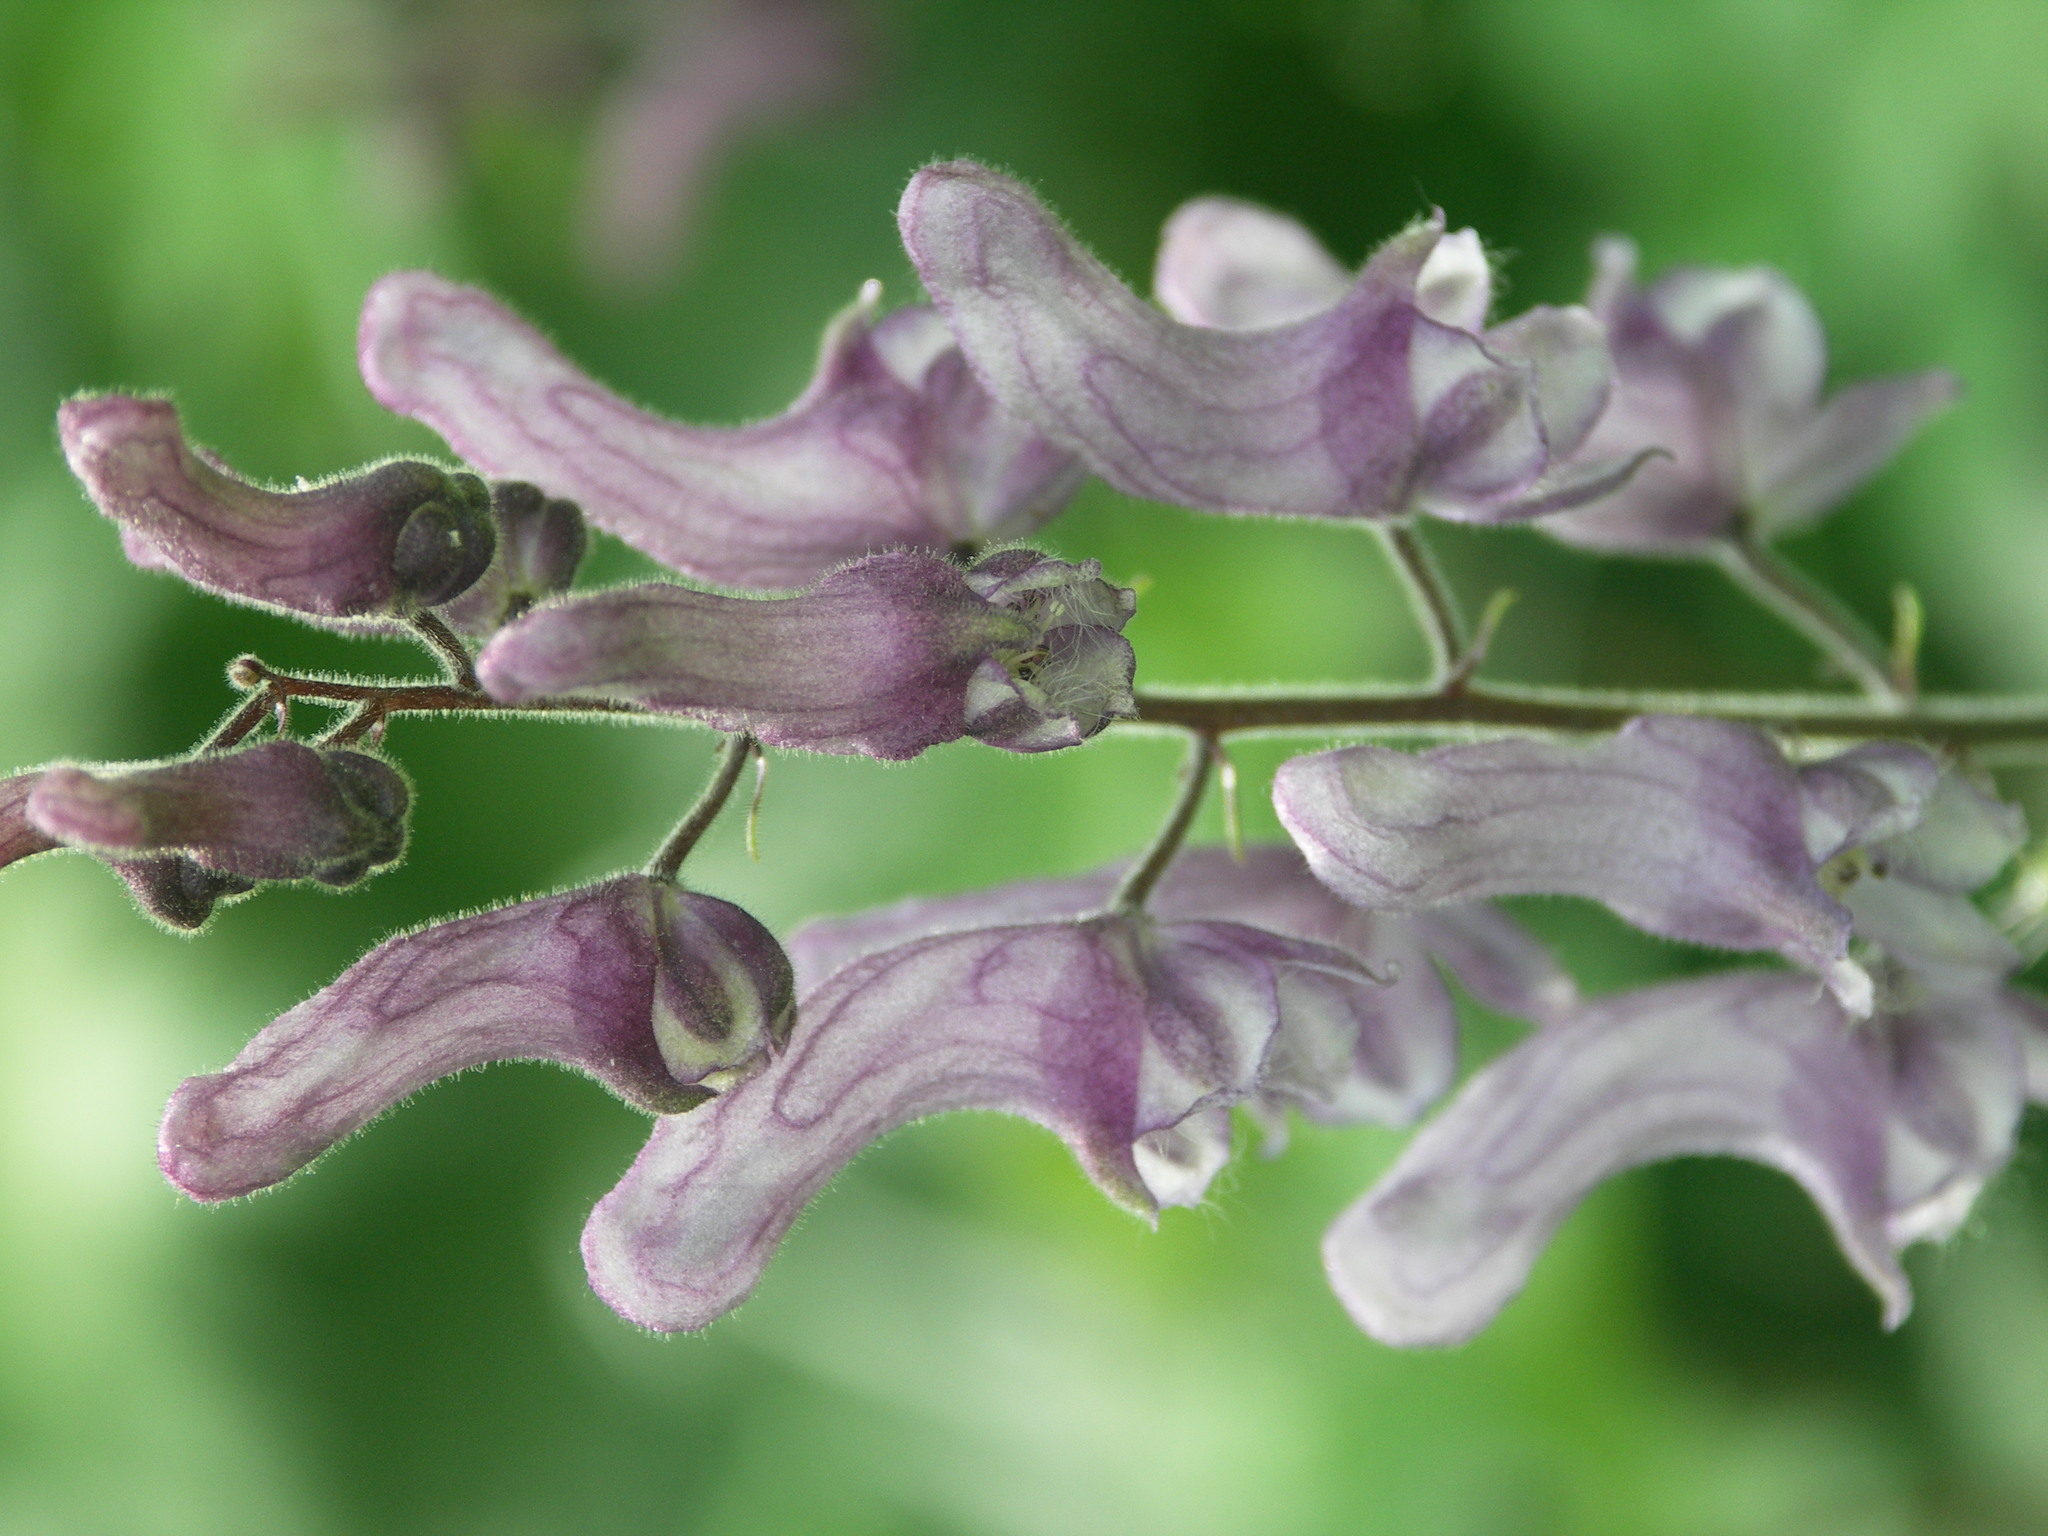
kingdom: Plantae
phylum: Tracheophyta
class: Magnoliopsida
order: Ranunculales
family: Ranunculaceae
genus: Aconitum
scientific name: Aconitum septentrionale
